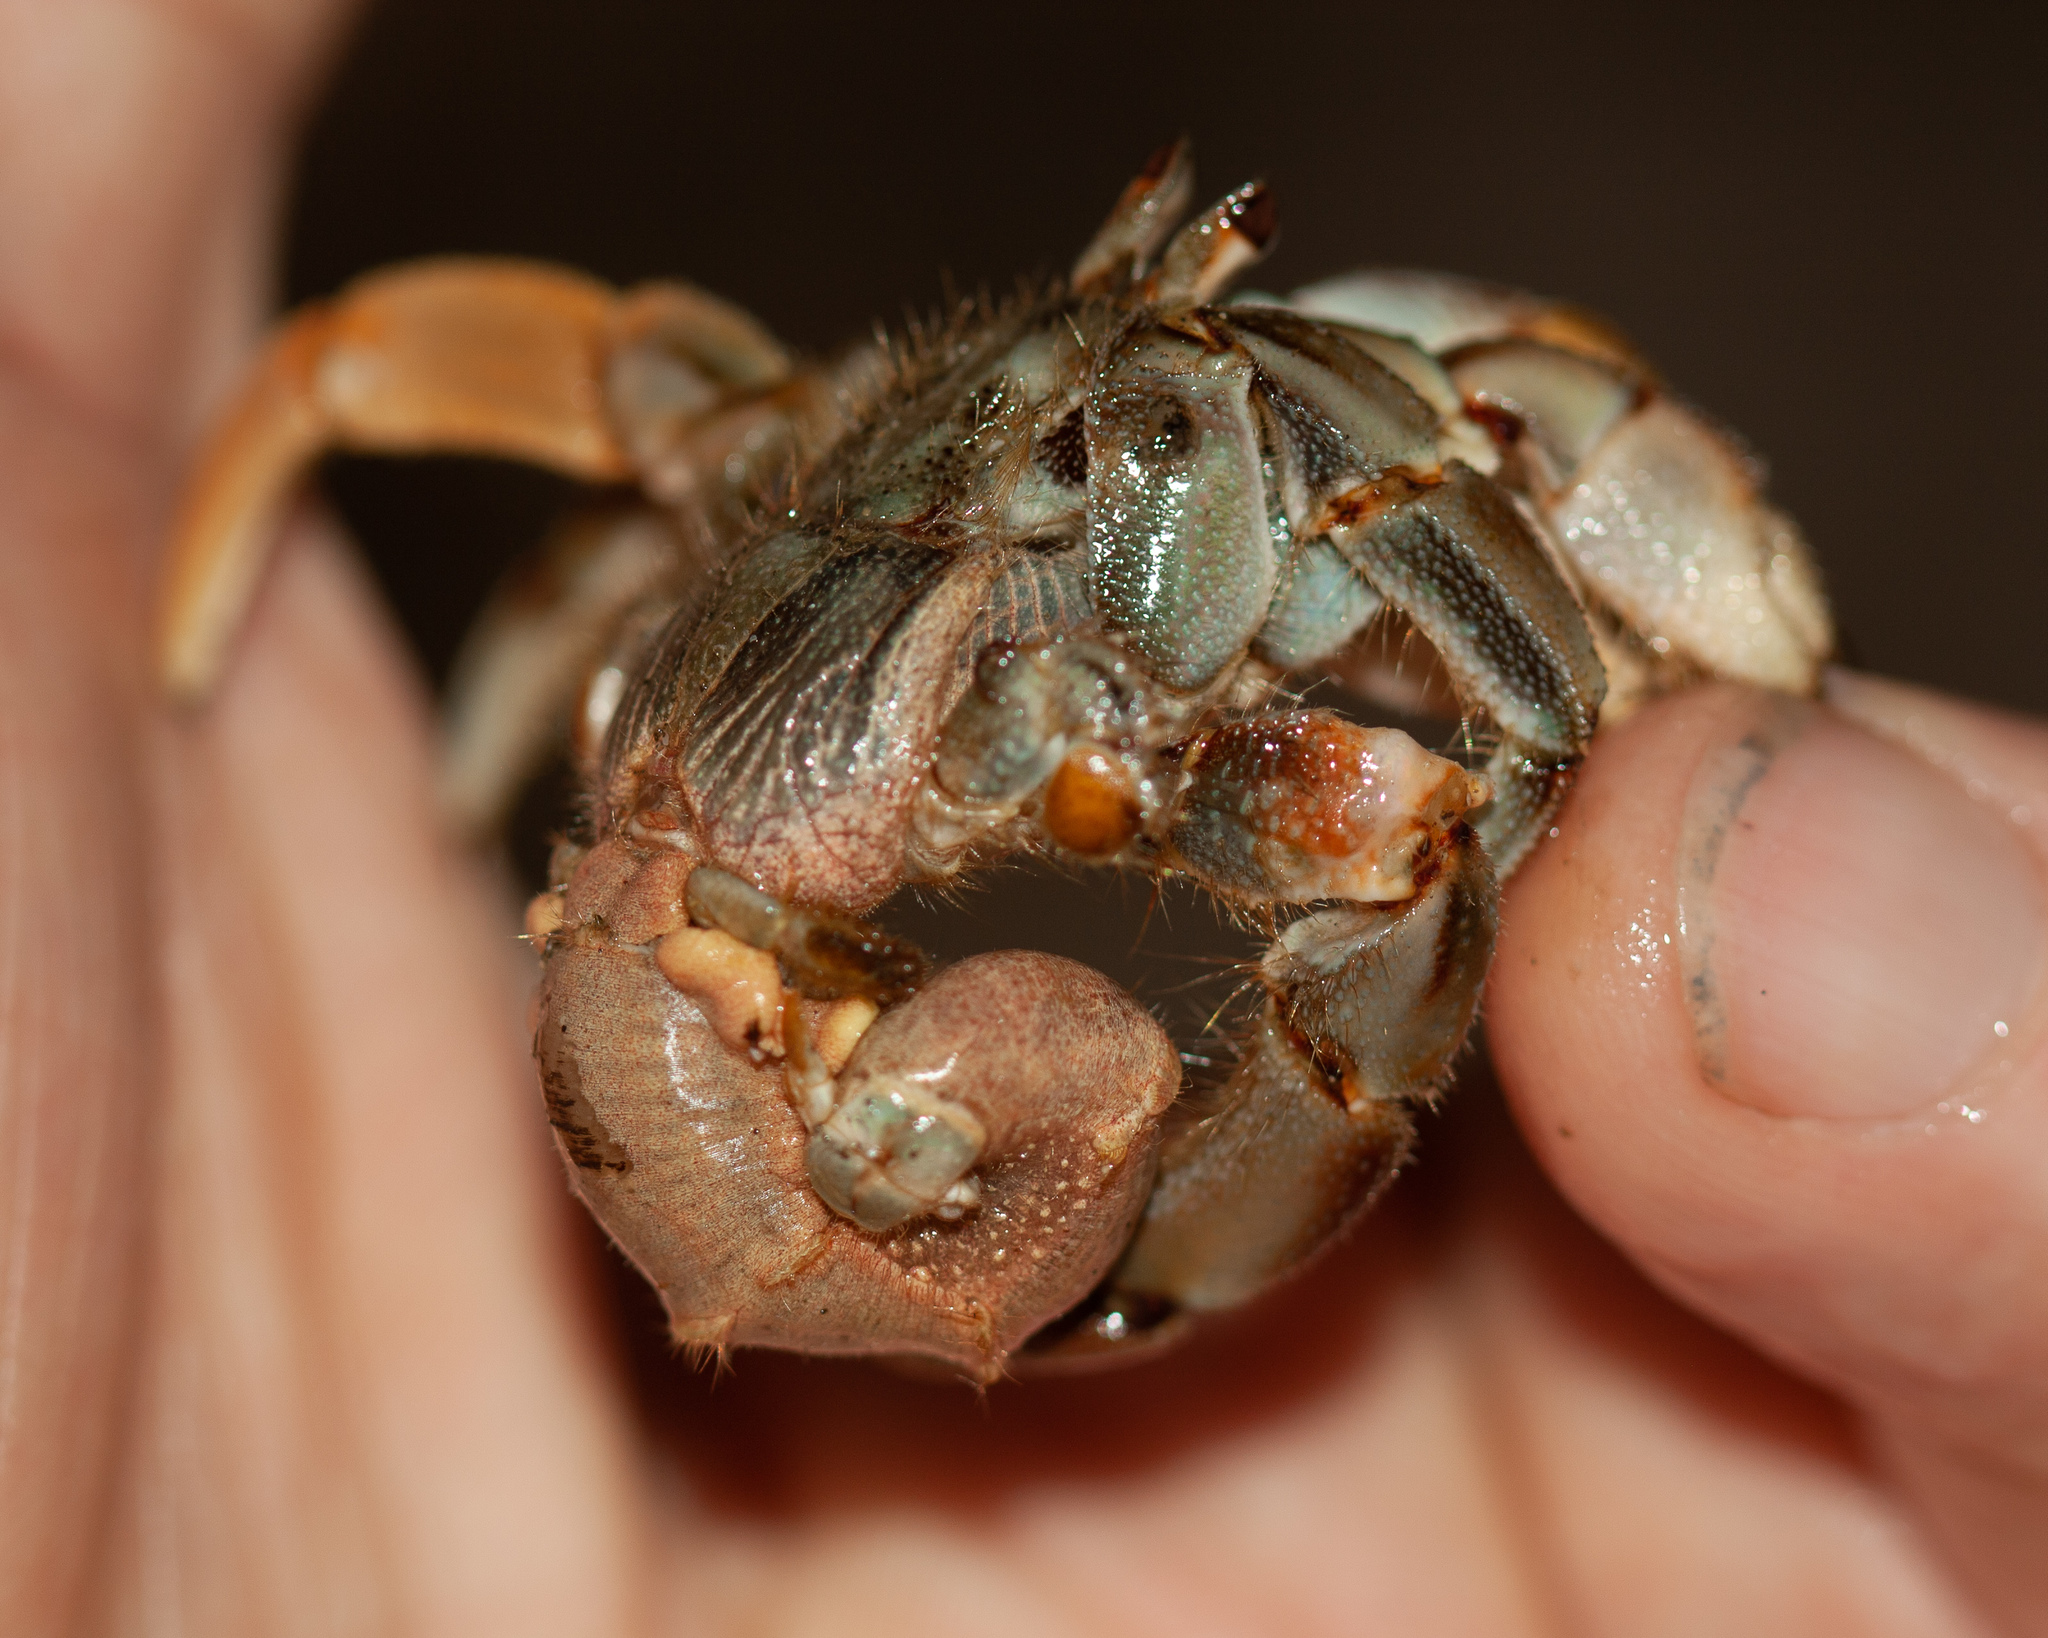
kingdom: Animalia
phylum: Arthropoda
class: Malacostraca
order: Decapoda
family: Coenobitidae
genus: Coenobita
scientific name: Coenobita compressus
